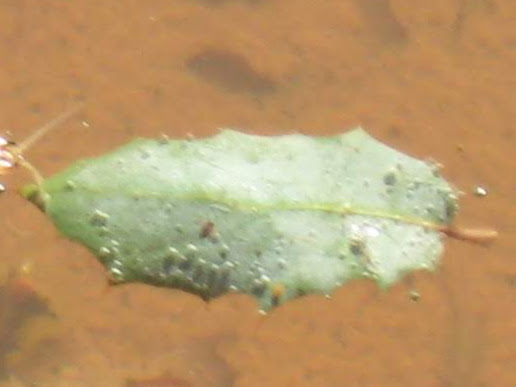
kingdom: Plantae
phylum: Tracheophyta
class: Magnoliopsida
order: Fagales
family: Fagaceae
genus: Quercus
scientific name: Quercus turbinella
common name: Sonoran scrub oak
